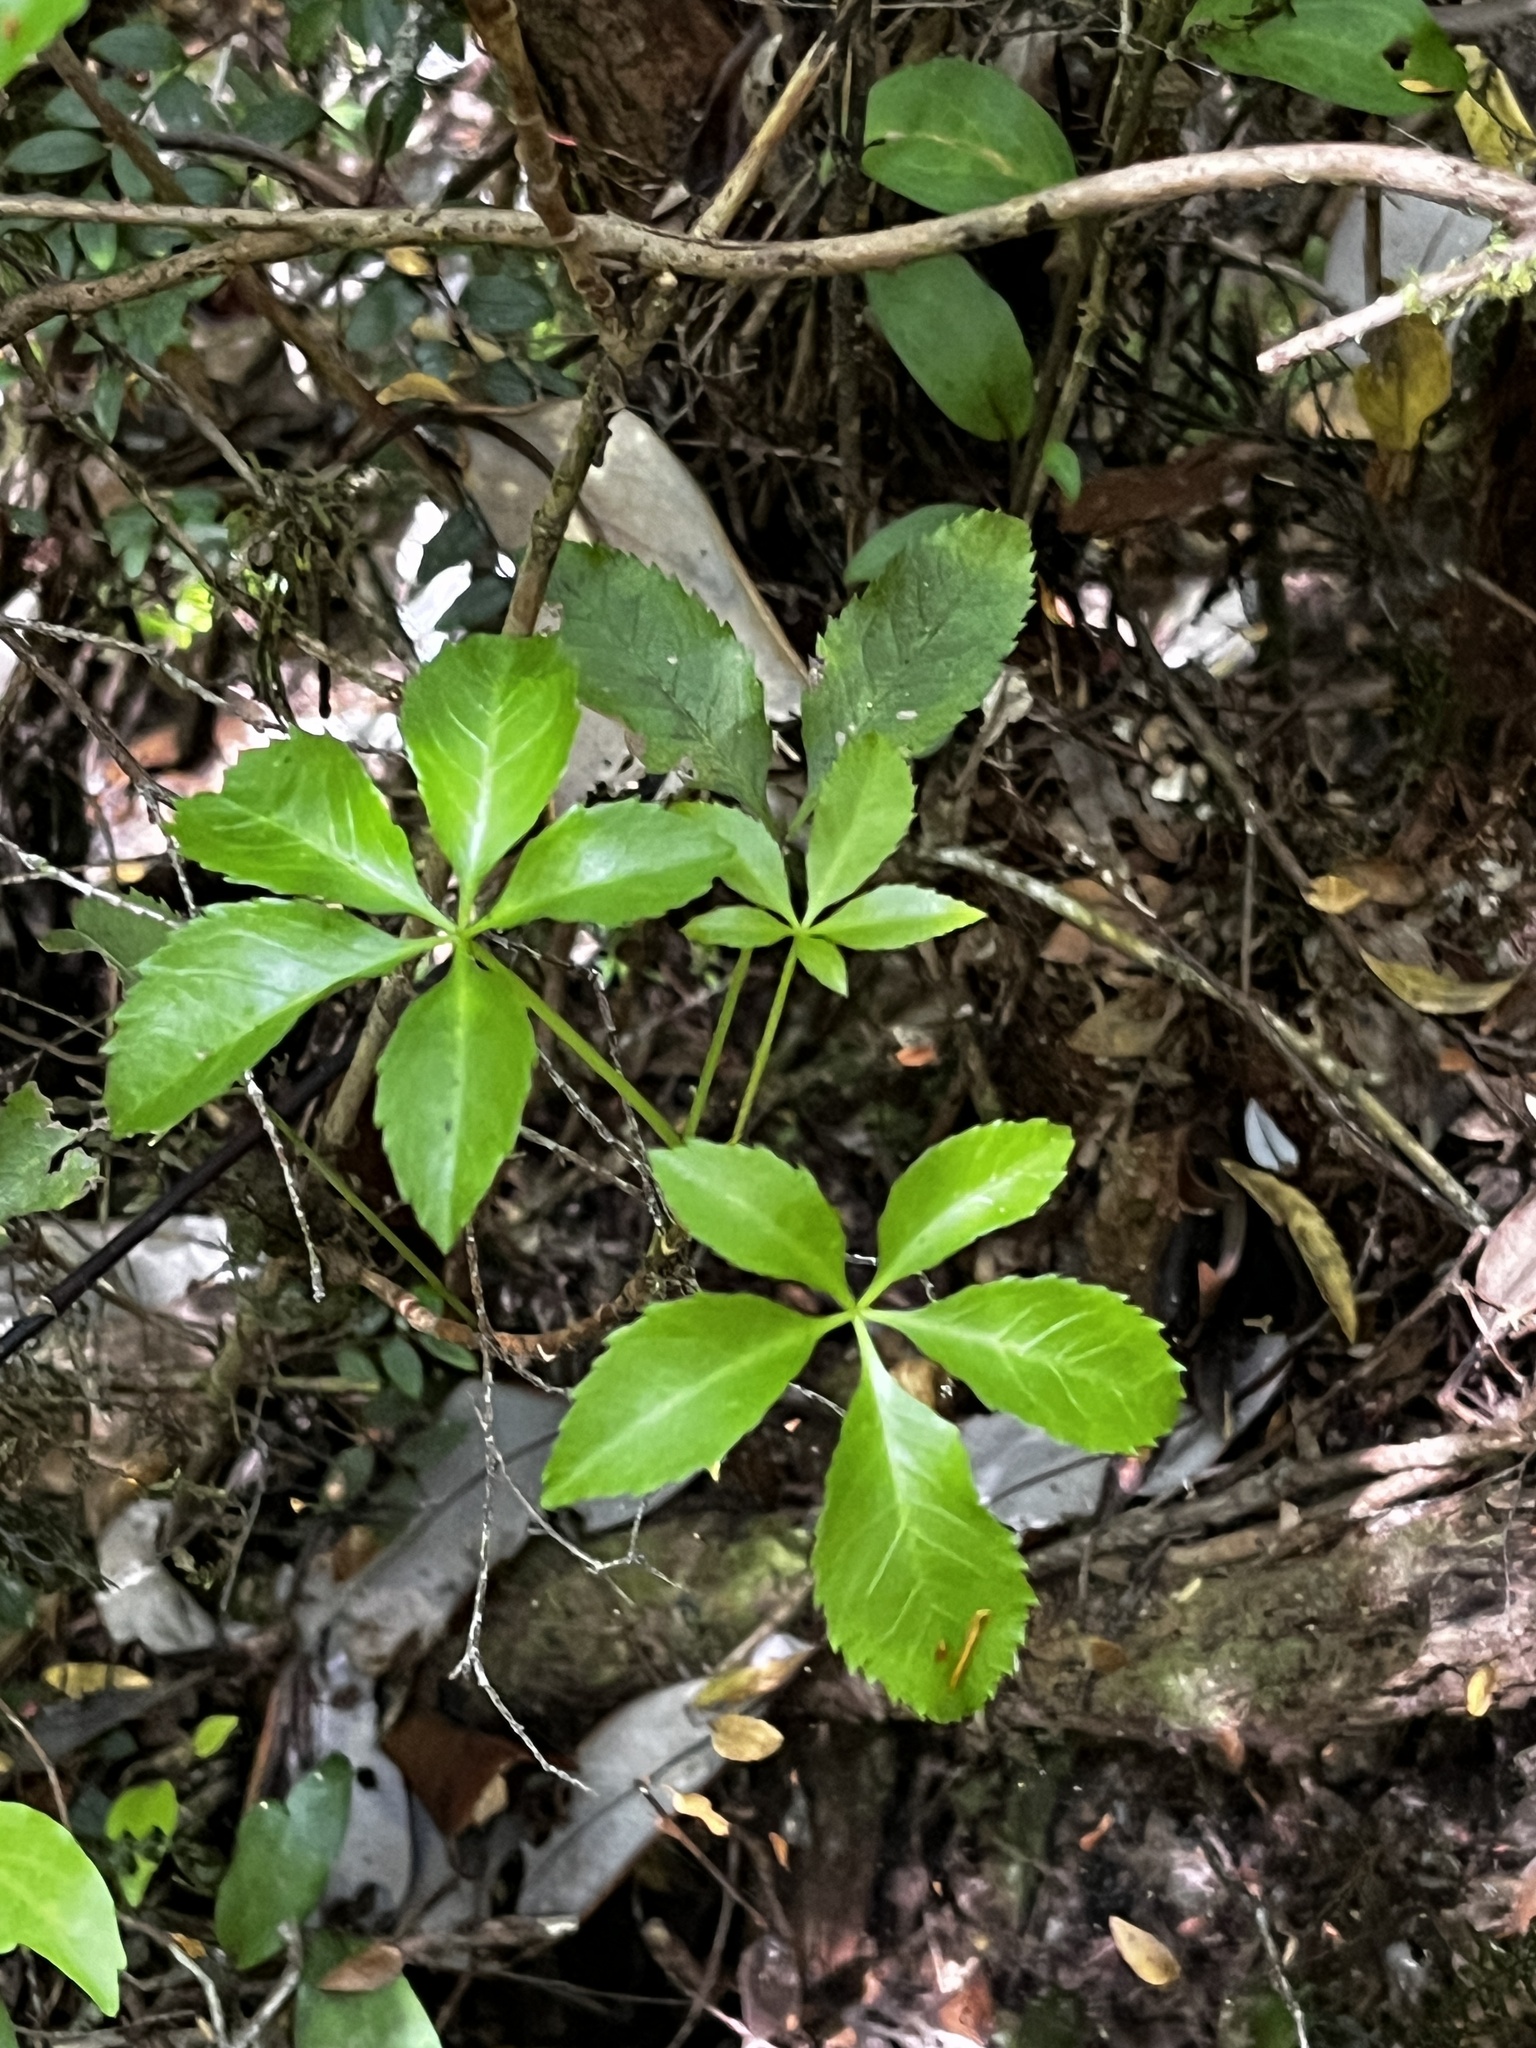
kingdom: Plantae
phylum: Tracheophyta
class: Magnoliopsida
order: Apiales
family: Araliaceae
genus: Raukaua
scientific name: Raukaua laetevirens
